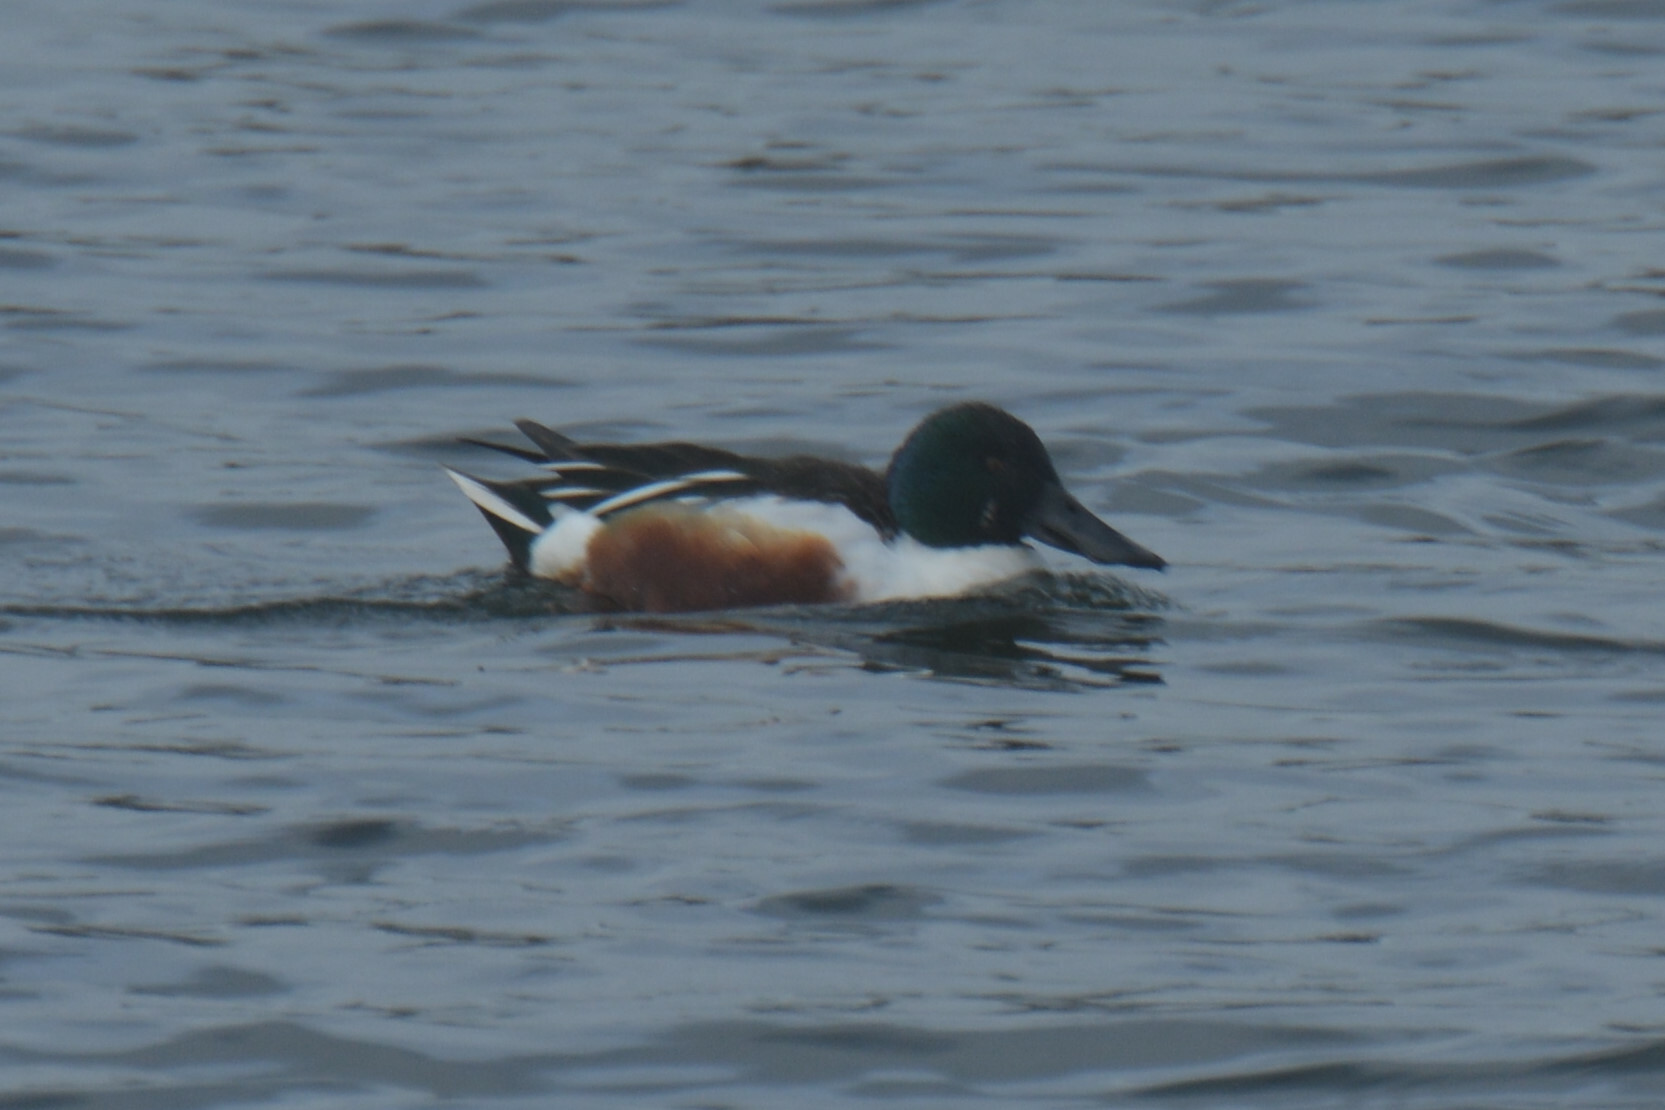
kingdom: Animalia
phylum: Chordata
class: Aves
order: Anseriformes
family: Anatidae
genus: Spatula
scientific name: Spatula clypeata
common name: Northern shoveler
